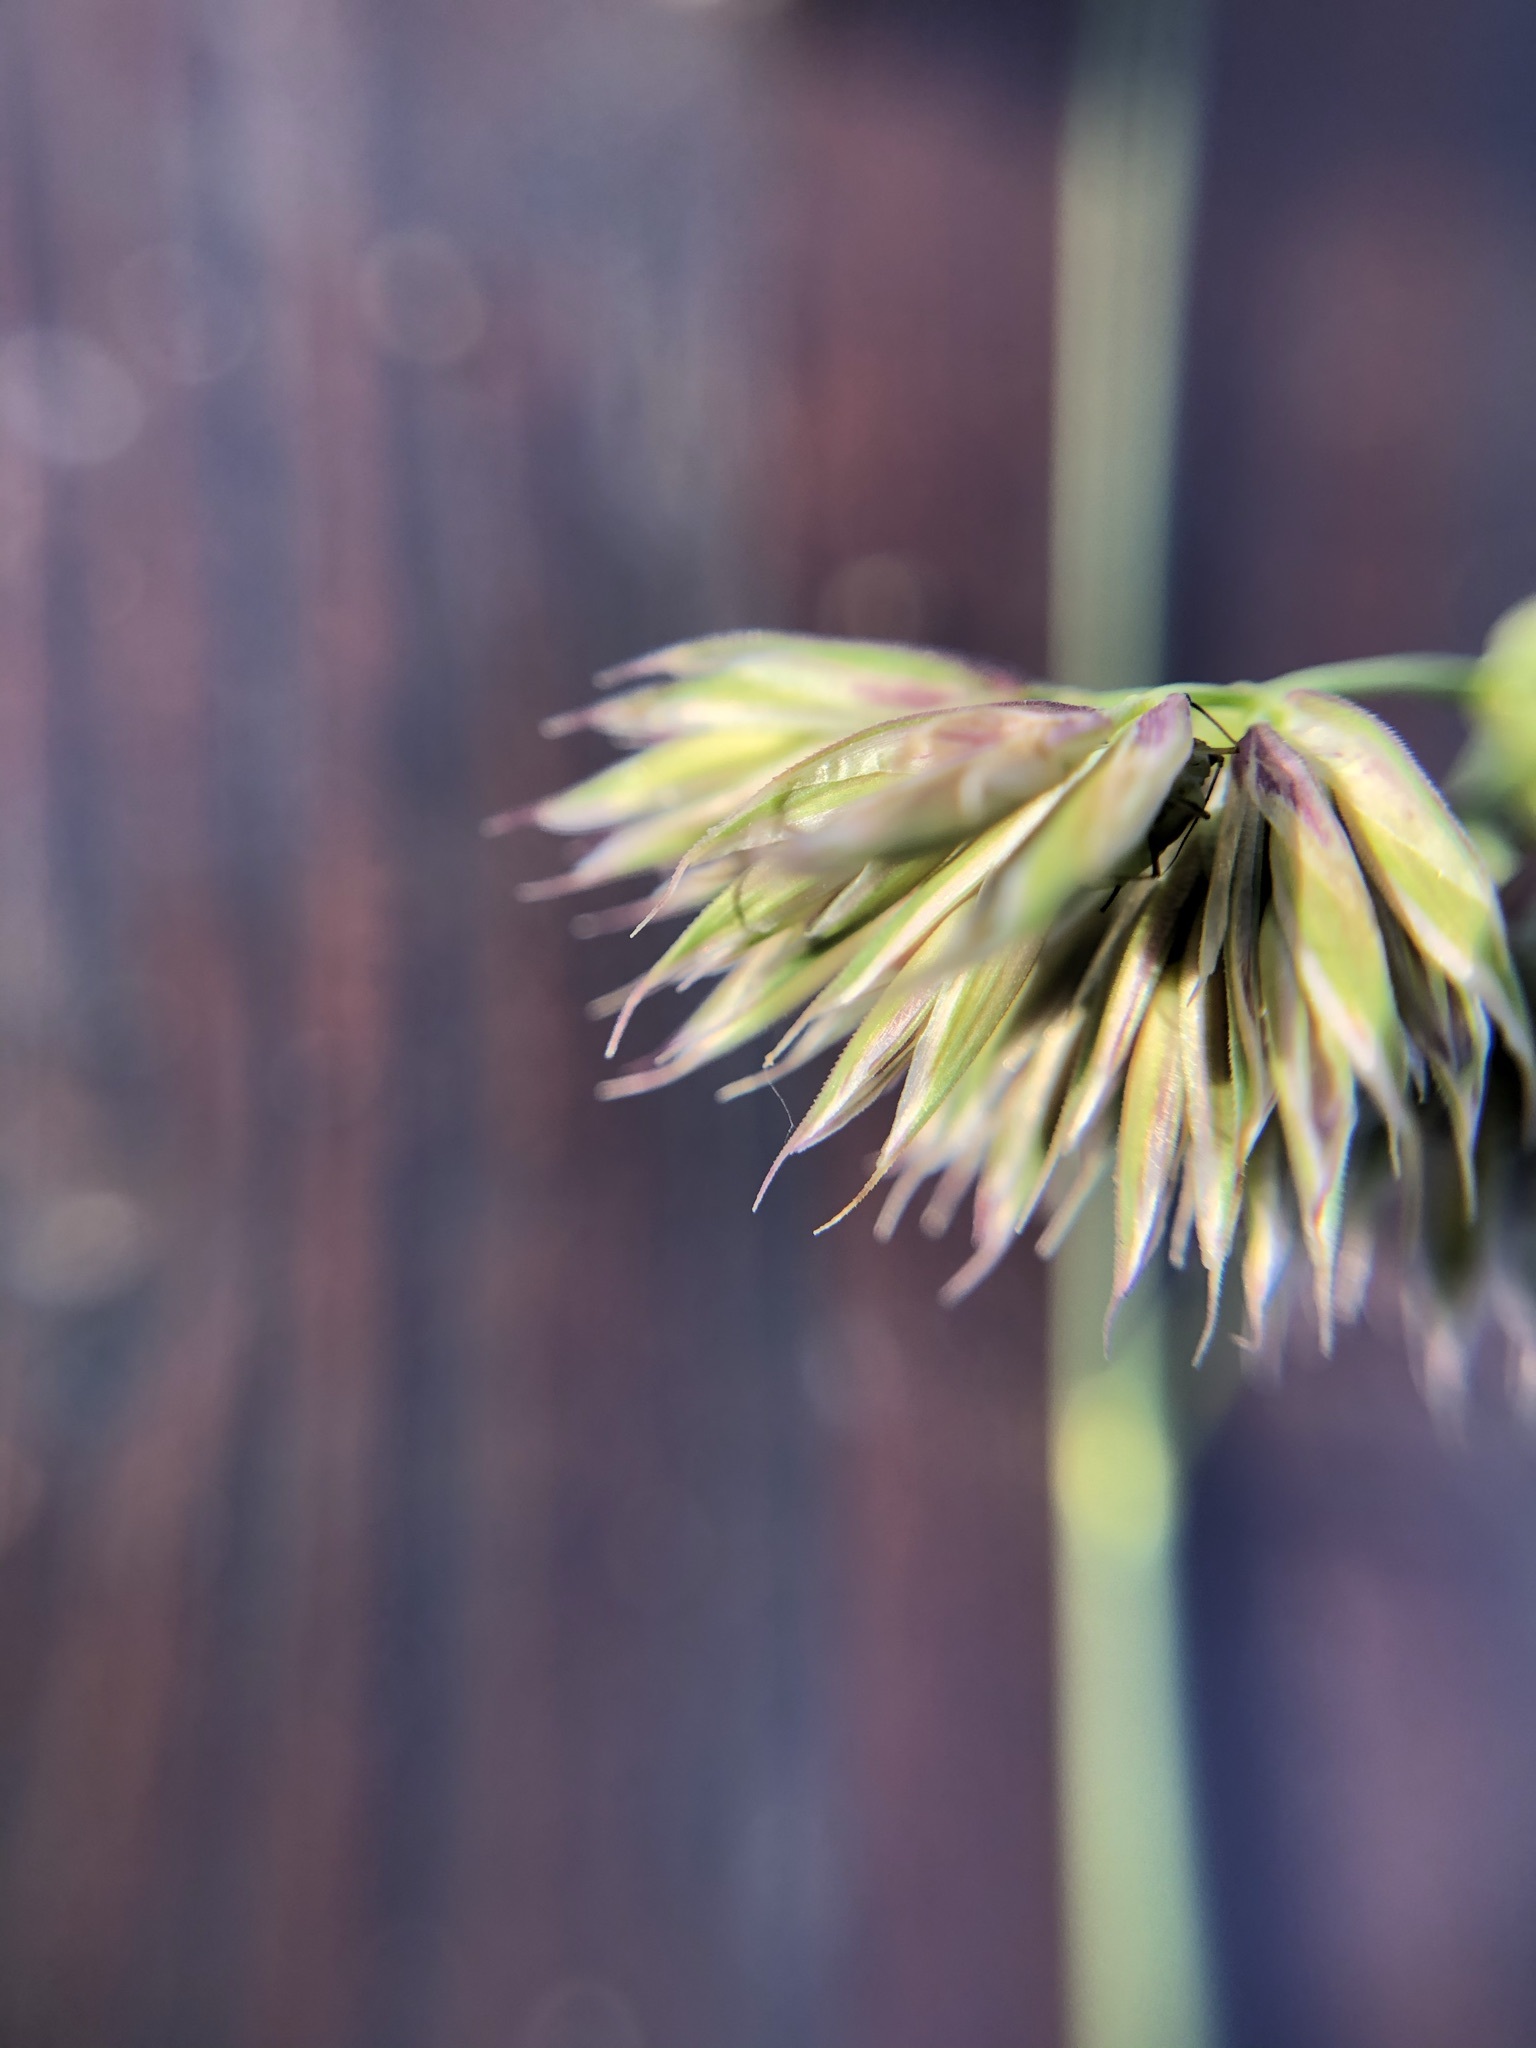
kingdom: Plantae
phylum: Tracheophyta
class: Liliopsida
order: Poales
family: Poaceae
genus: Dactylis
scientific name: Dactylis glomerata
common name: Orchardgrass
